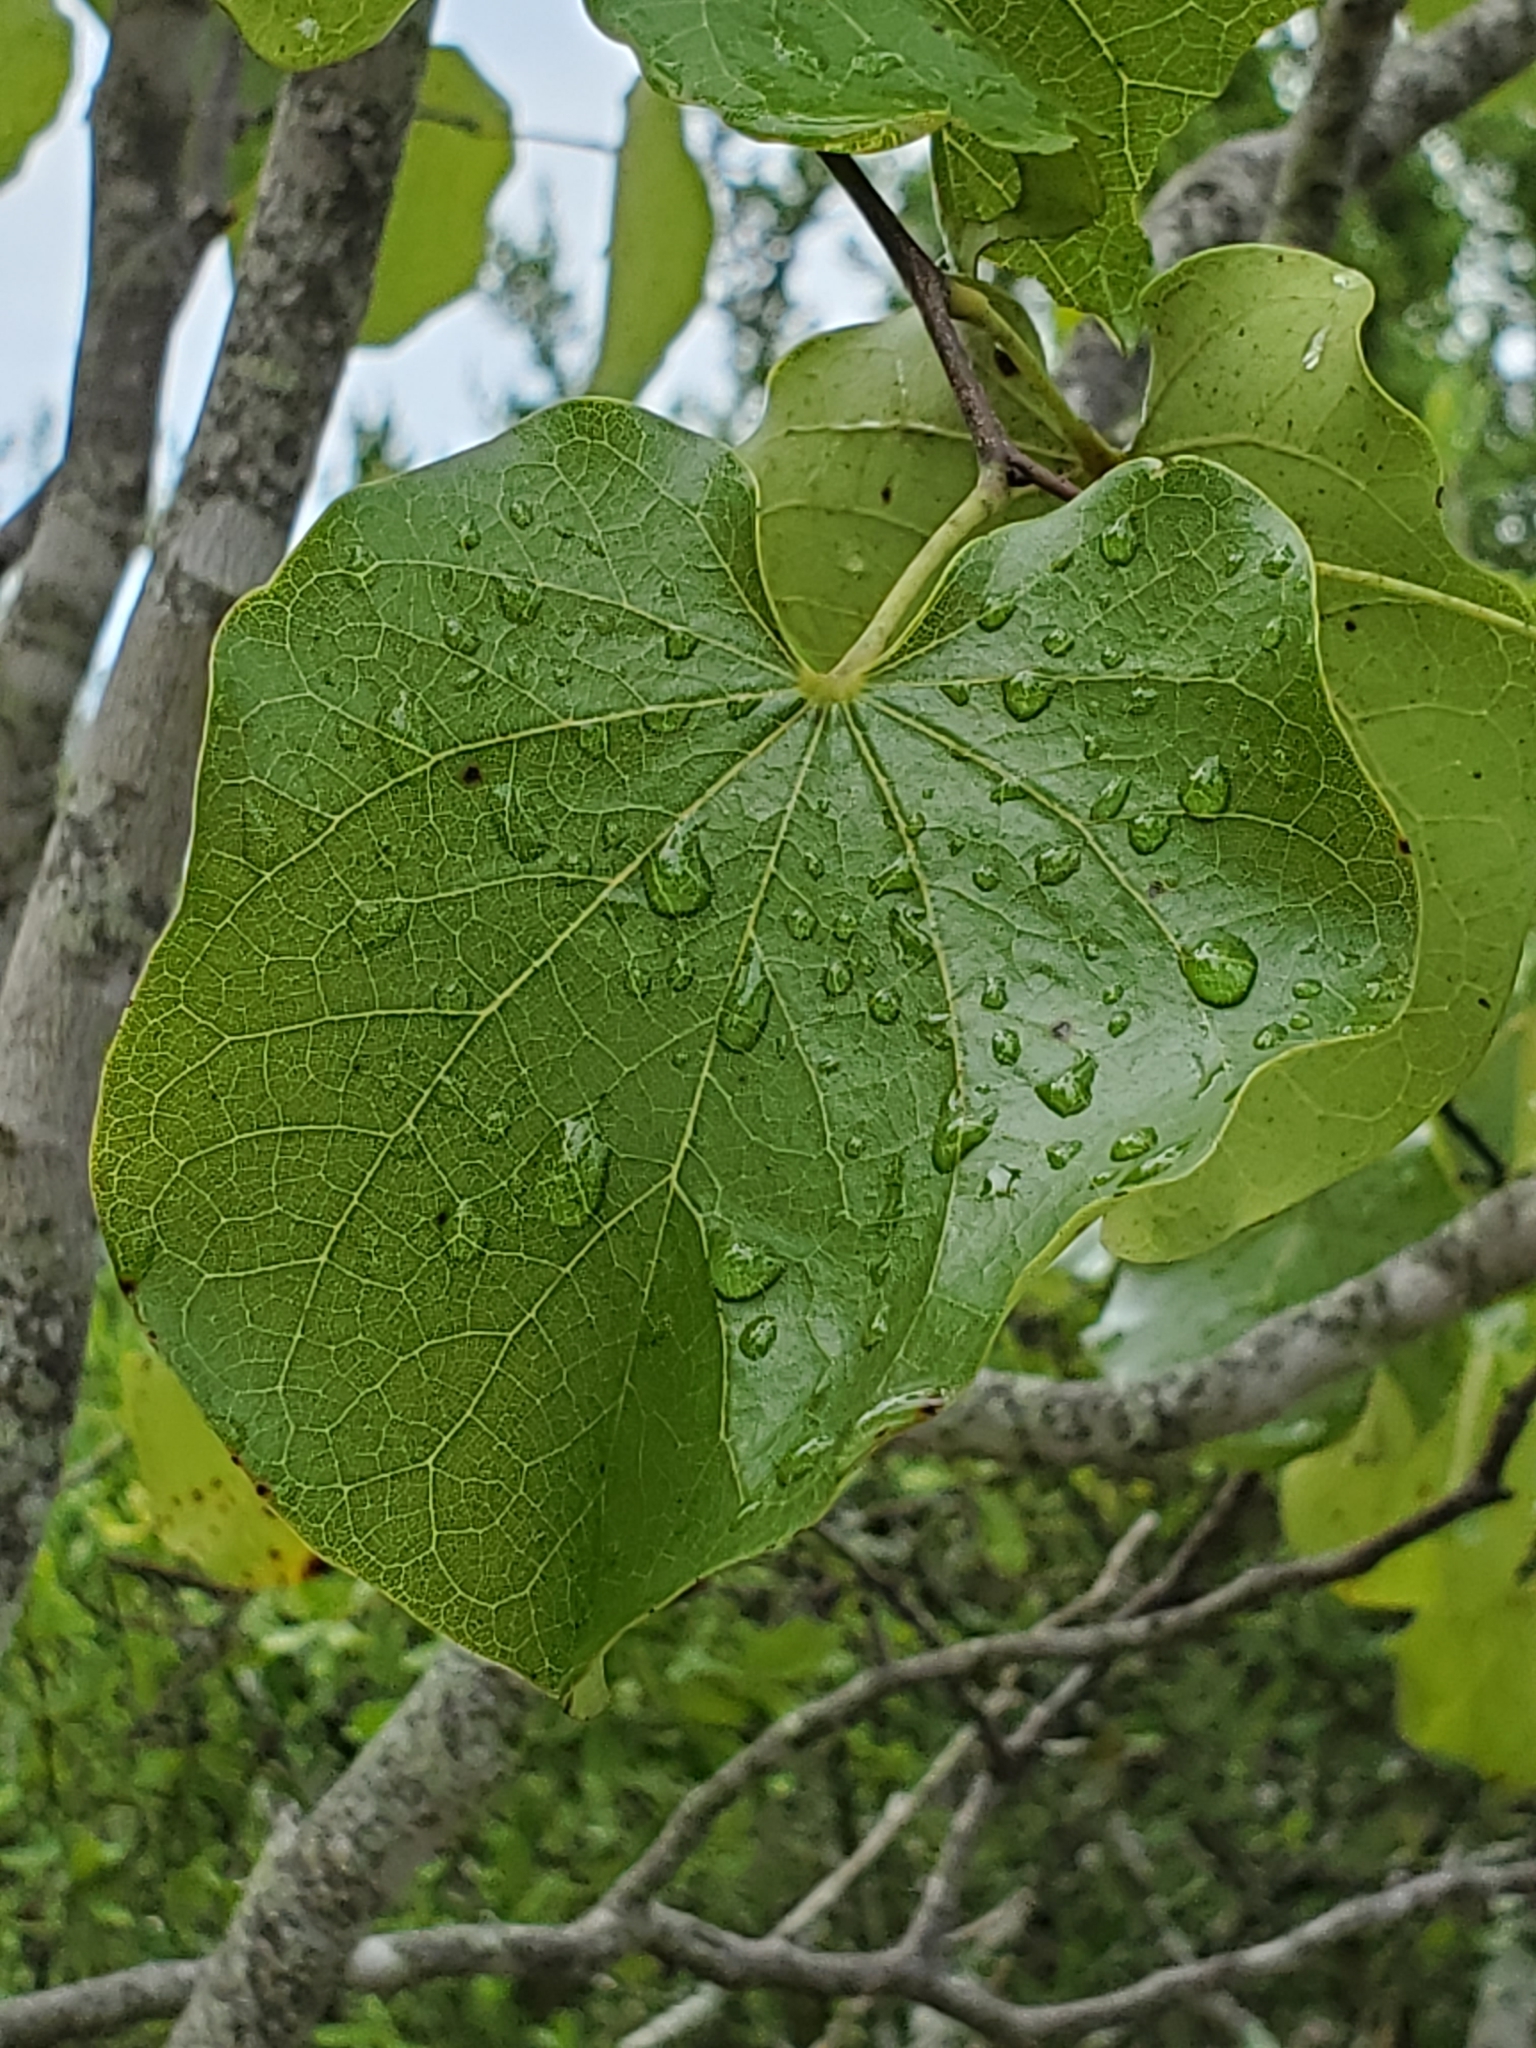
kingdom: Plantae
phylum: Tracheophyta
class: Magnoliopsida
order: Fabales
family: Fabaceae
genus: Cercis
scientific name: Cercis canadensis
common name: Eastern redbud
